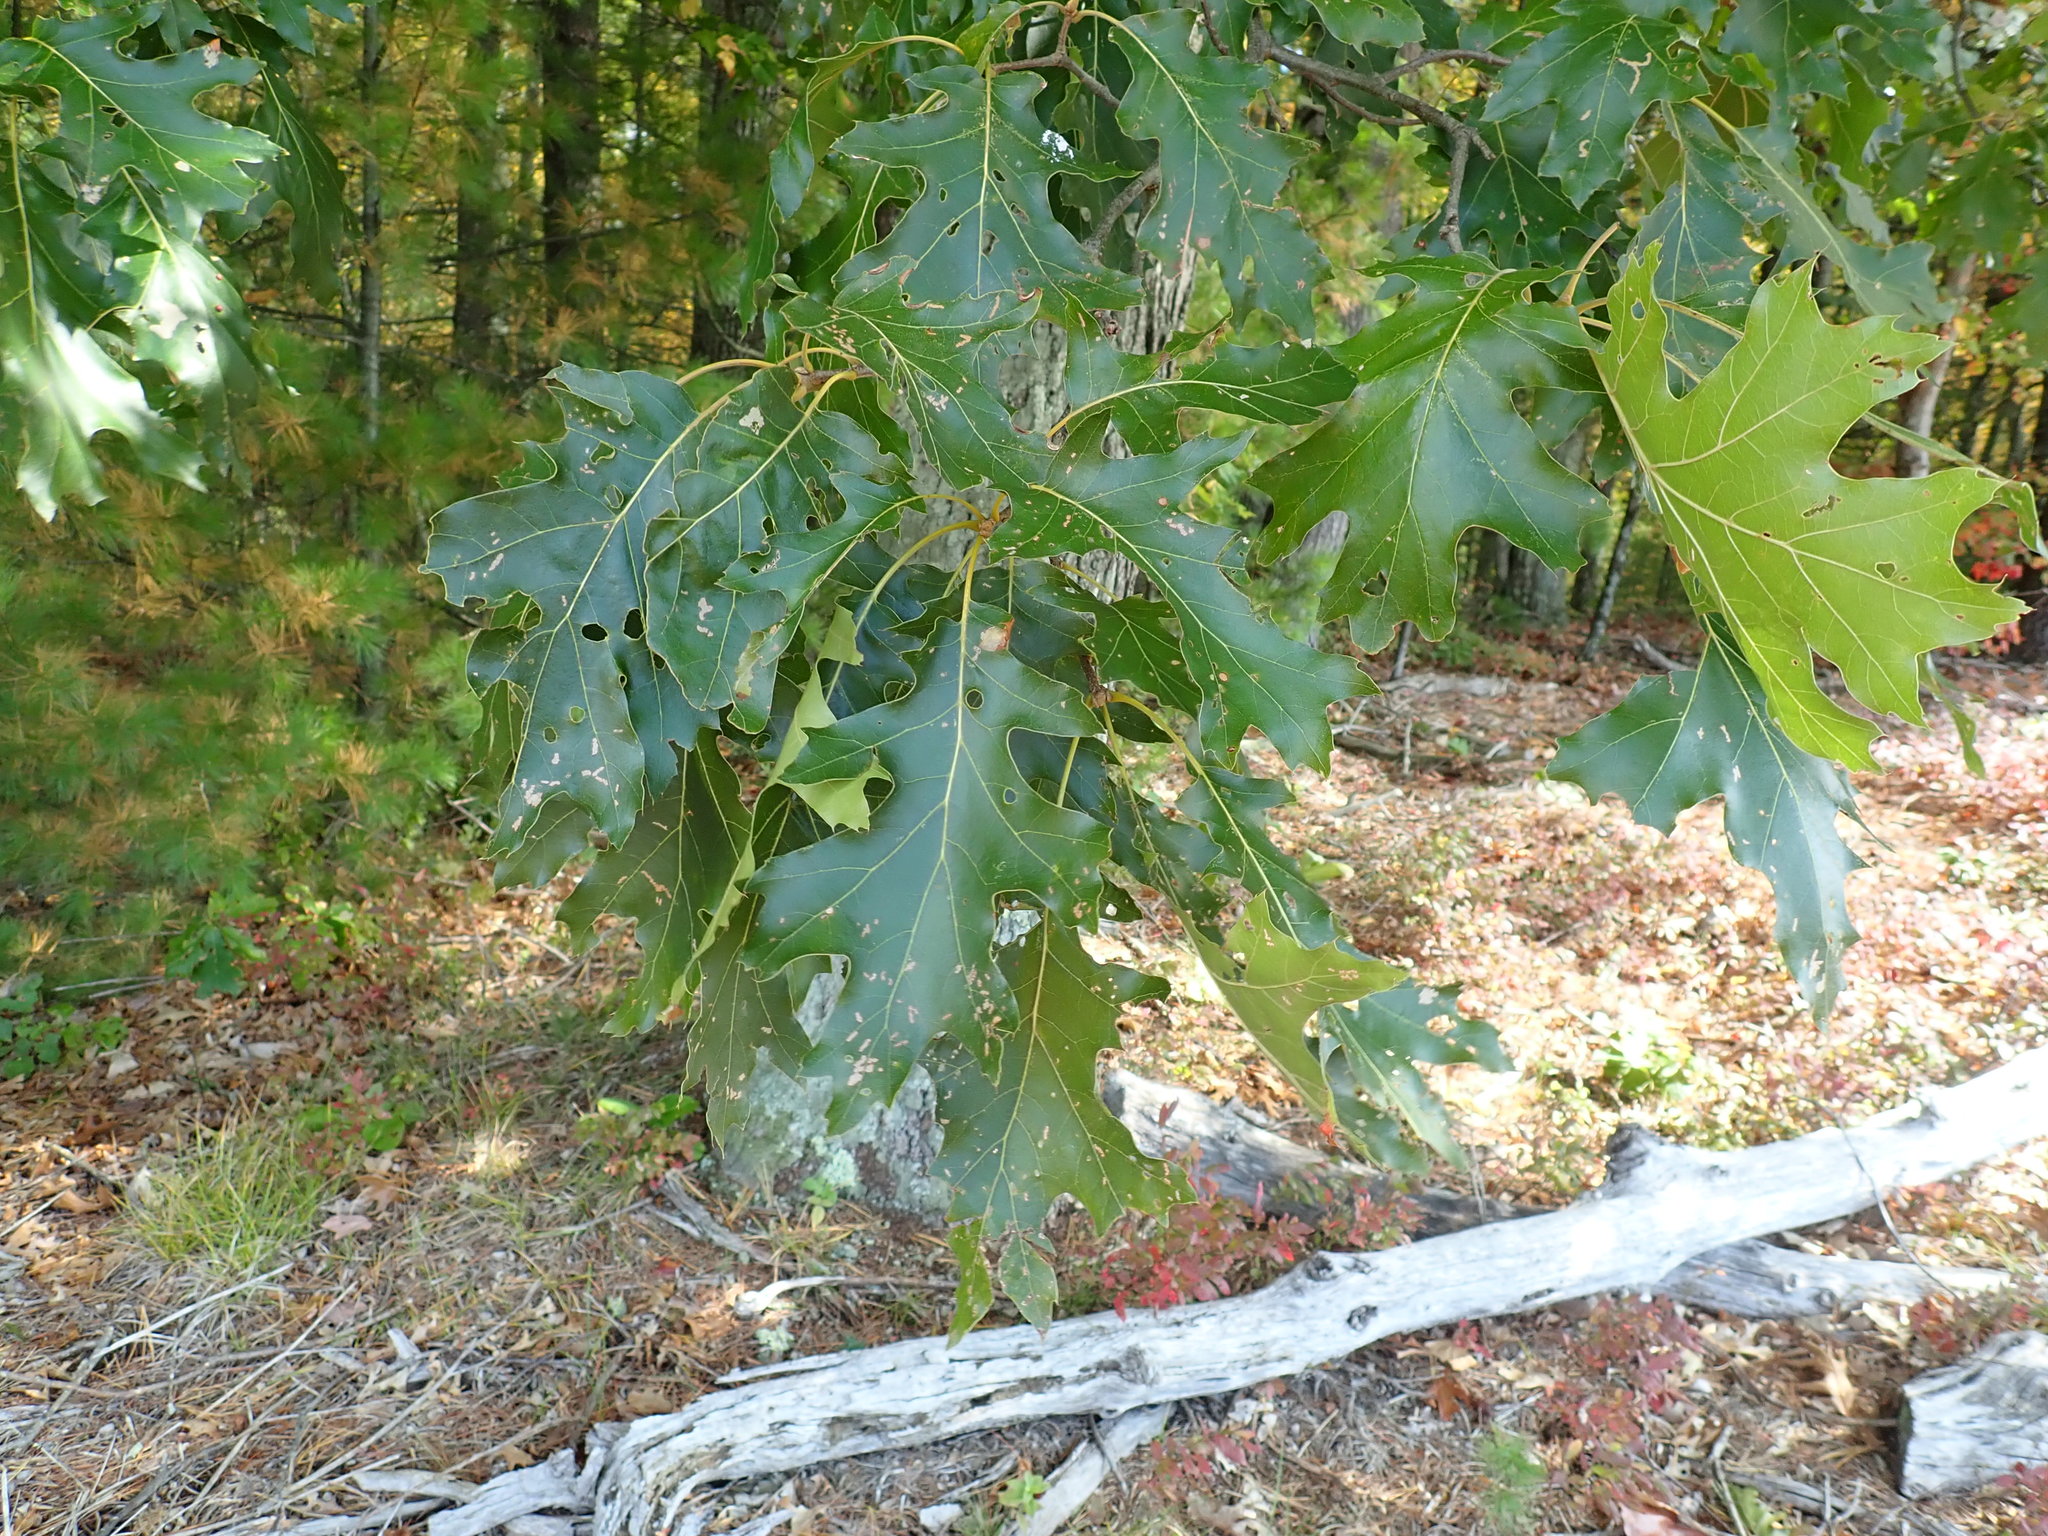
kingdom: Plantae
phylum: Tracheophyta
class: Magnoliopsida
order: Fagales
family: Fagaceae
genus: Quercus
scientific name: Quercus velutina
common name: Black oak
